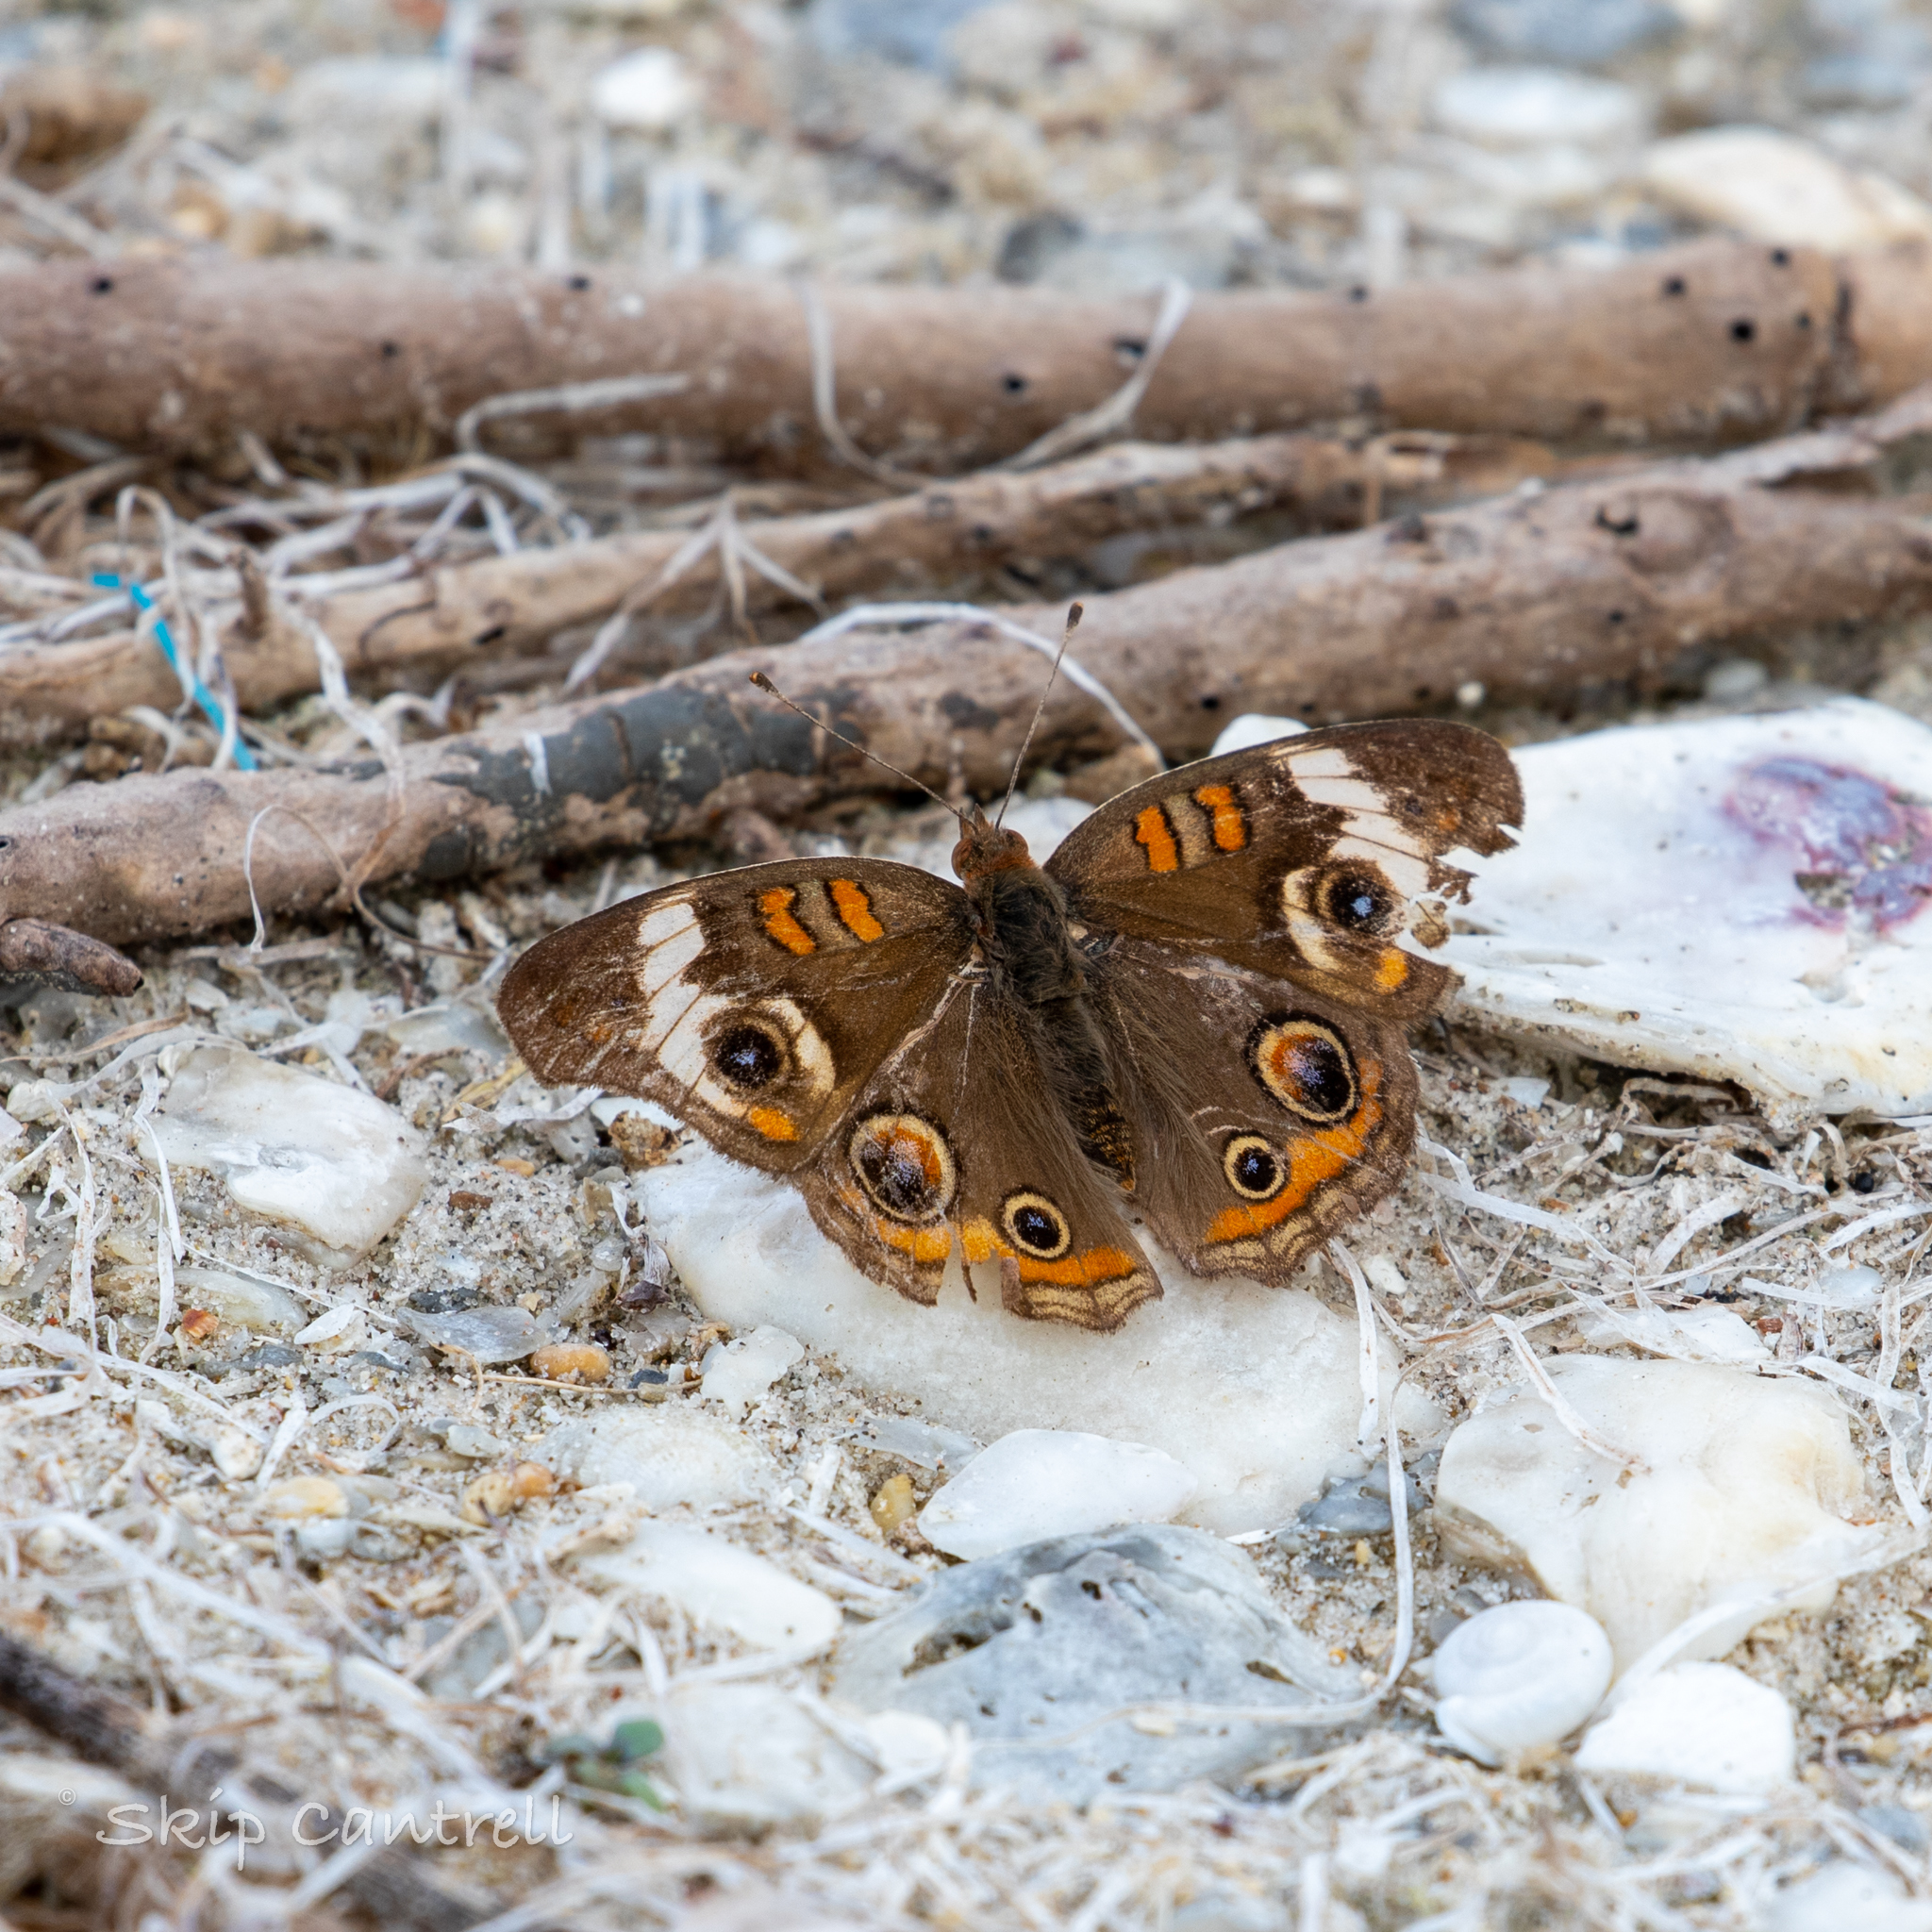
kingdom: Animalia
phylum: Arthropoda
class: Insecta
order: Lepidoptera
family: Nymphalidae
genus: Junonia
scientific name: Junonia coenia
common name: Common buckeye
